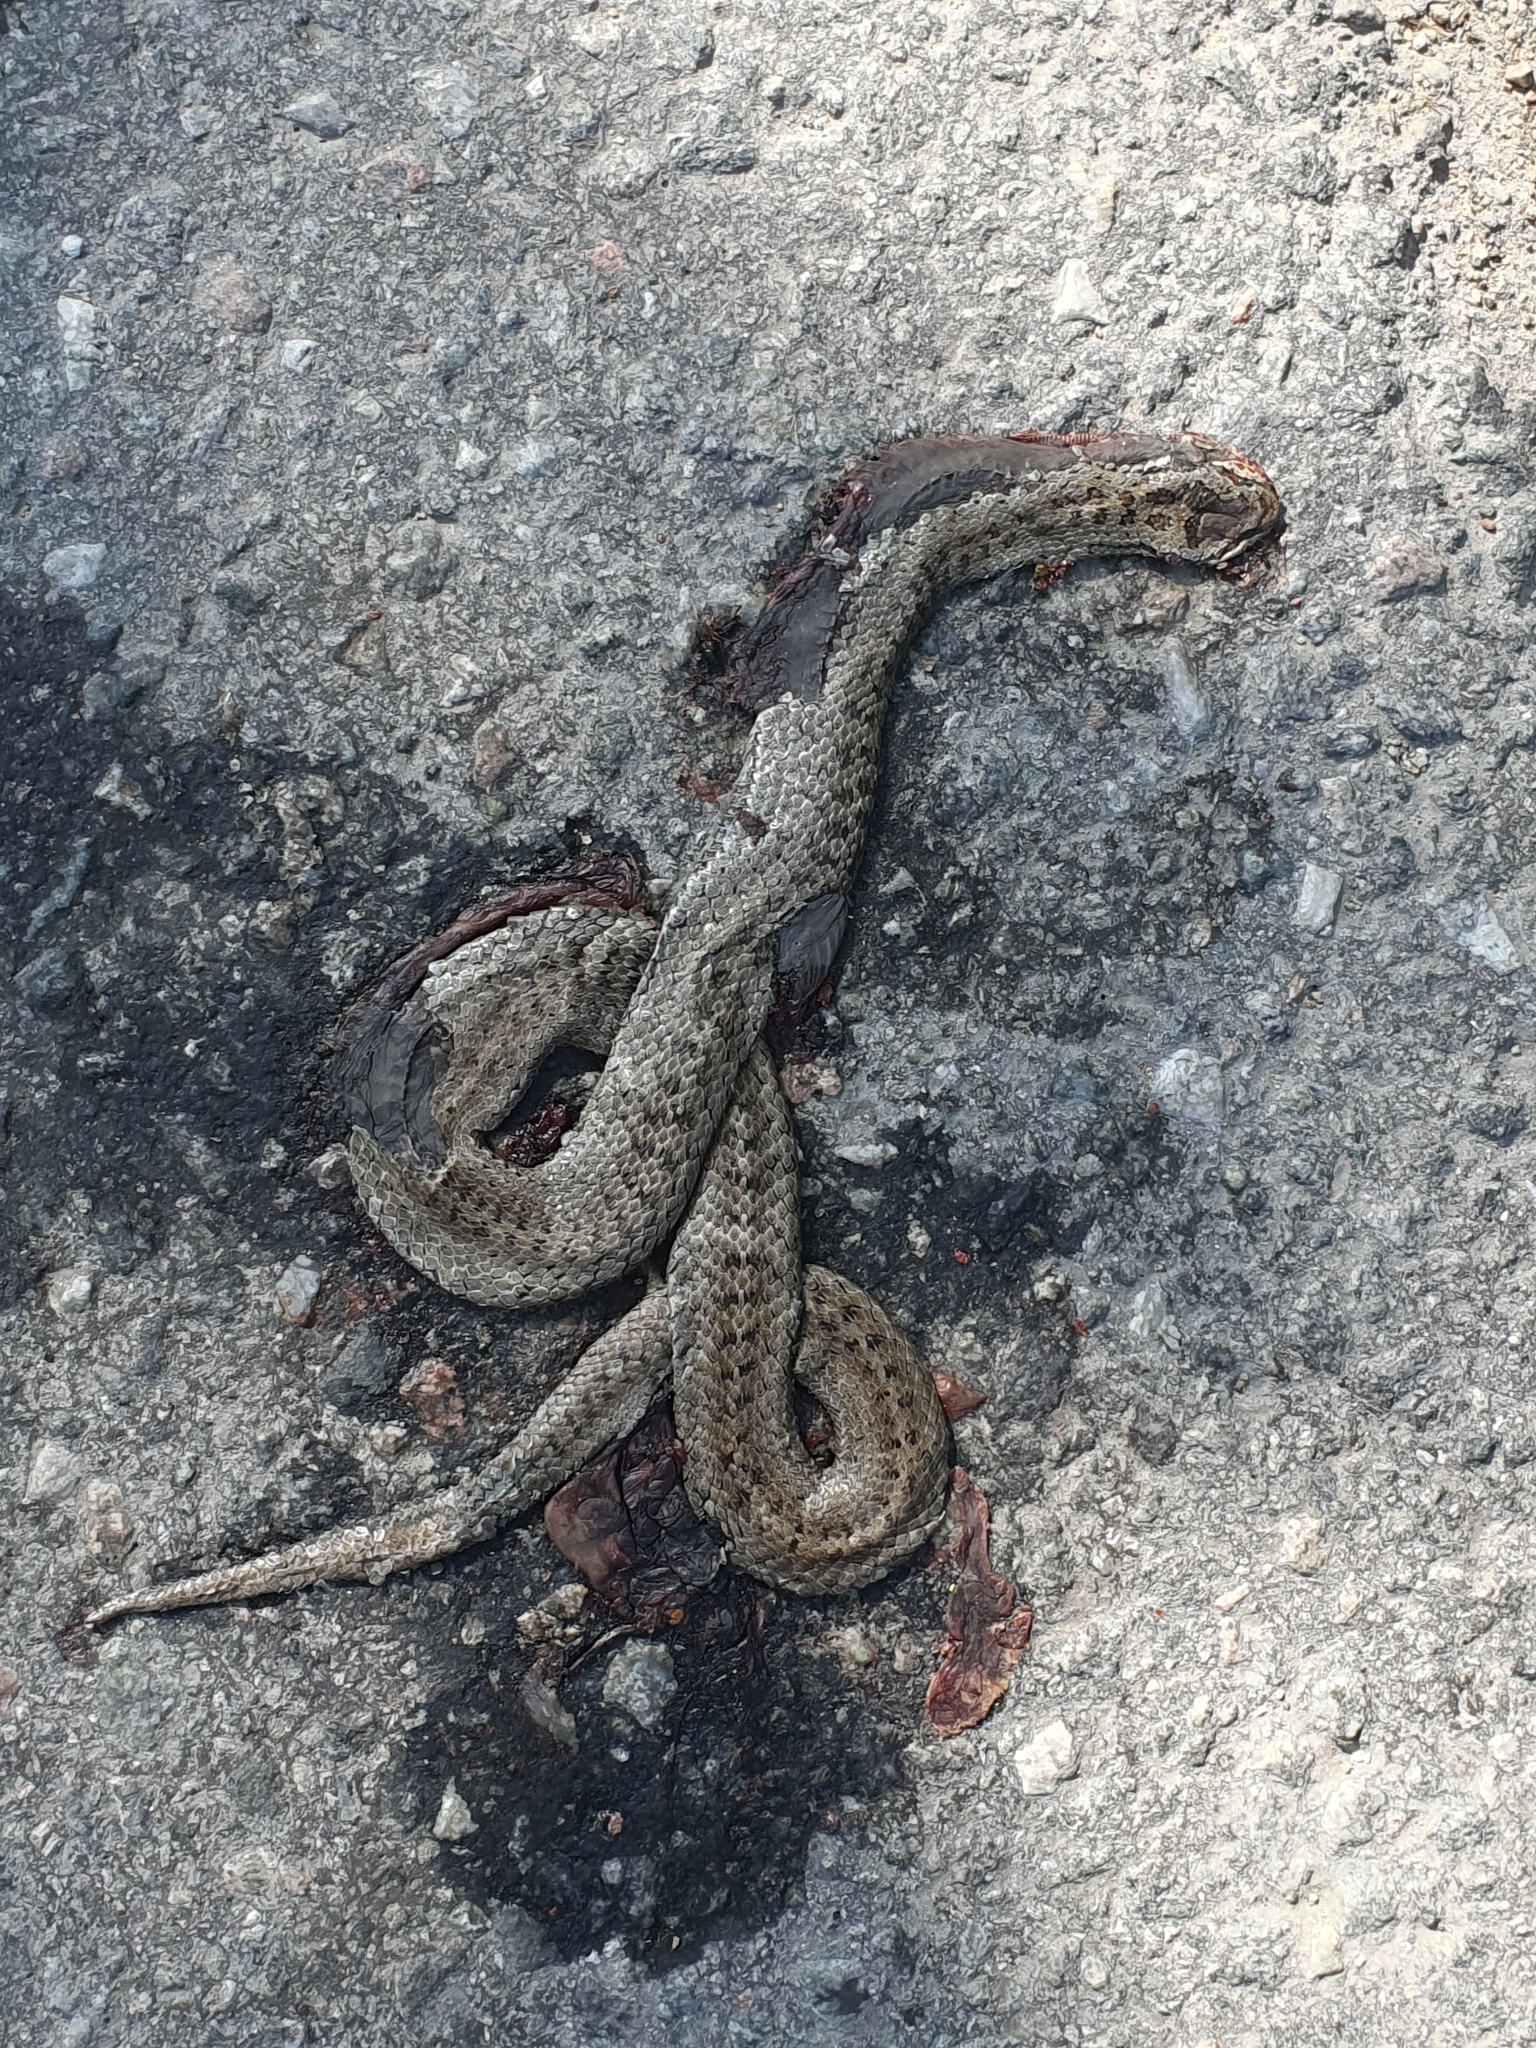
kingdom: Animalia
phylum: Chordata
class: Squamata
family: Colubridae
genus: Coronella
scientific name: Coronella austriaca
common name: Smooth snake
